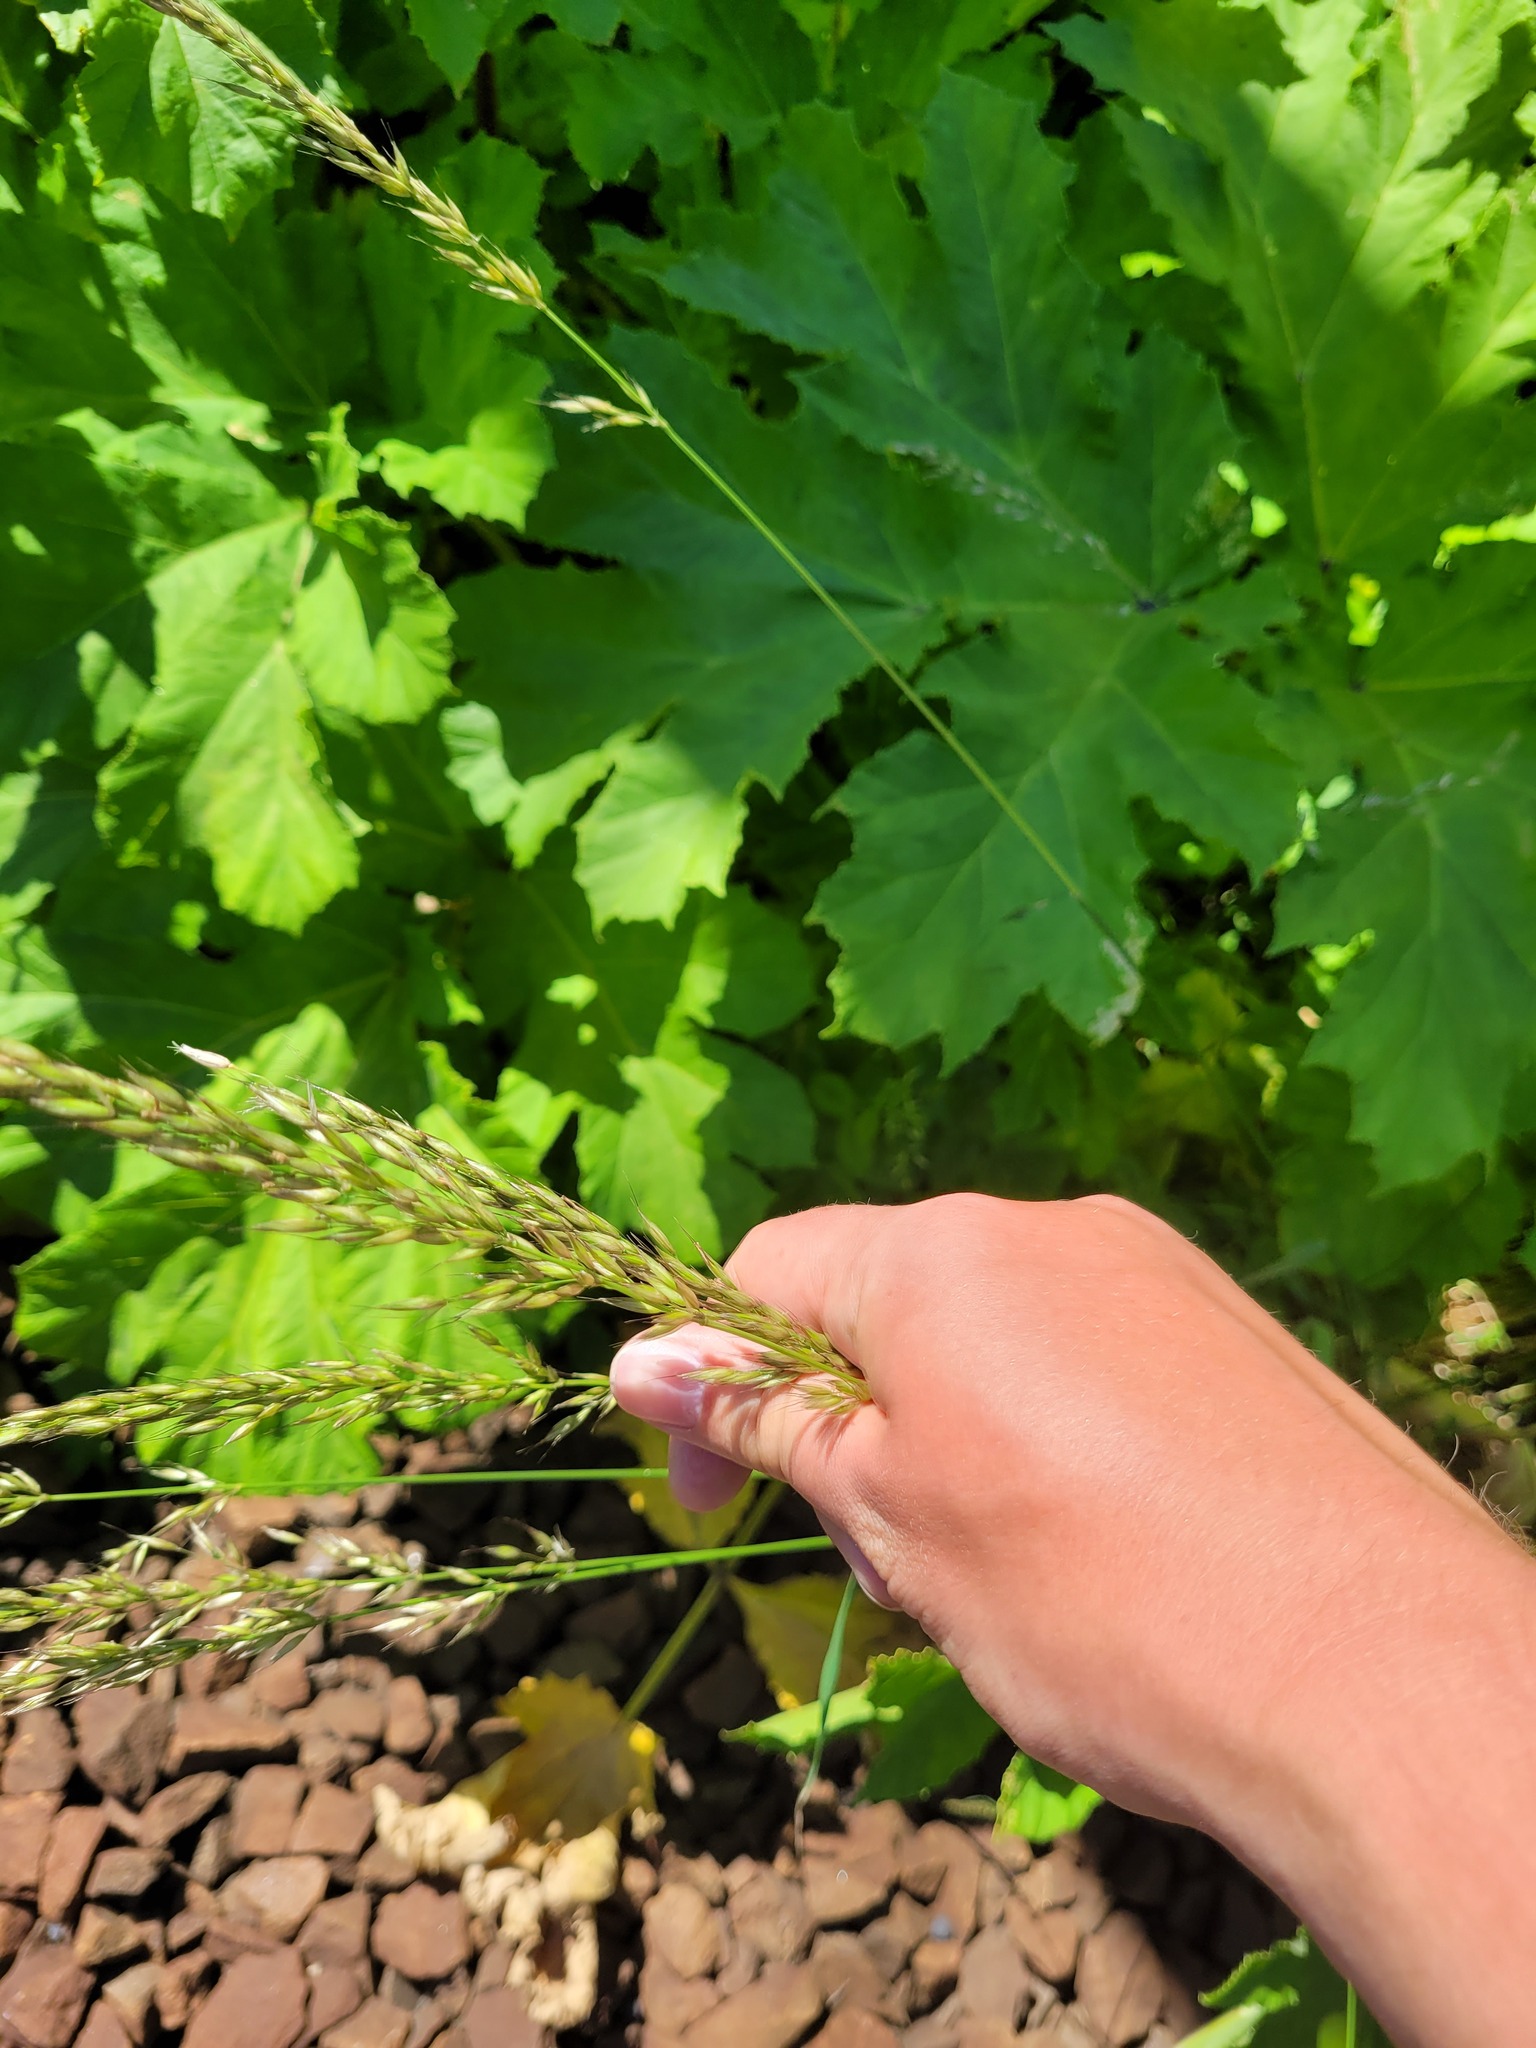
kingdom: Plantae
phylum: Tracheophyta
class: Liliopsida
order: Poales
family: Poaceae
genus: Arrhenatherum
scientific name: Arrhenatherum elatius
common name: Tall oatgrass
